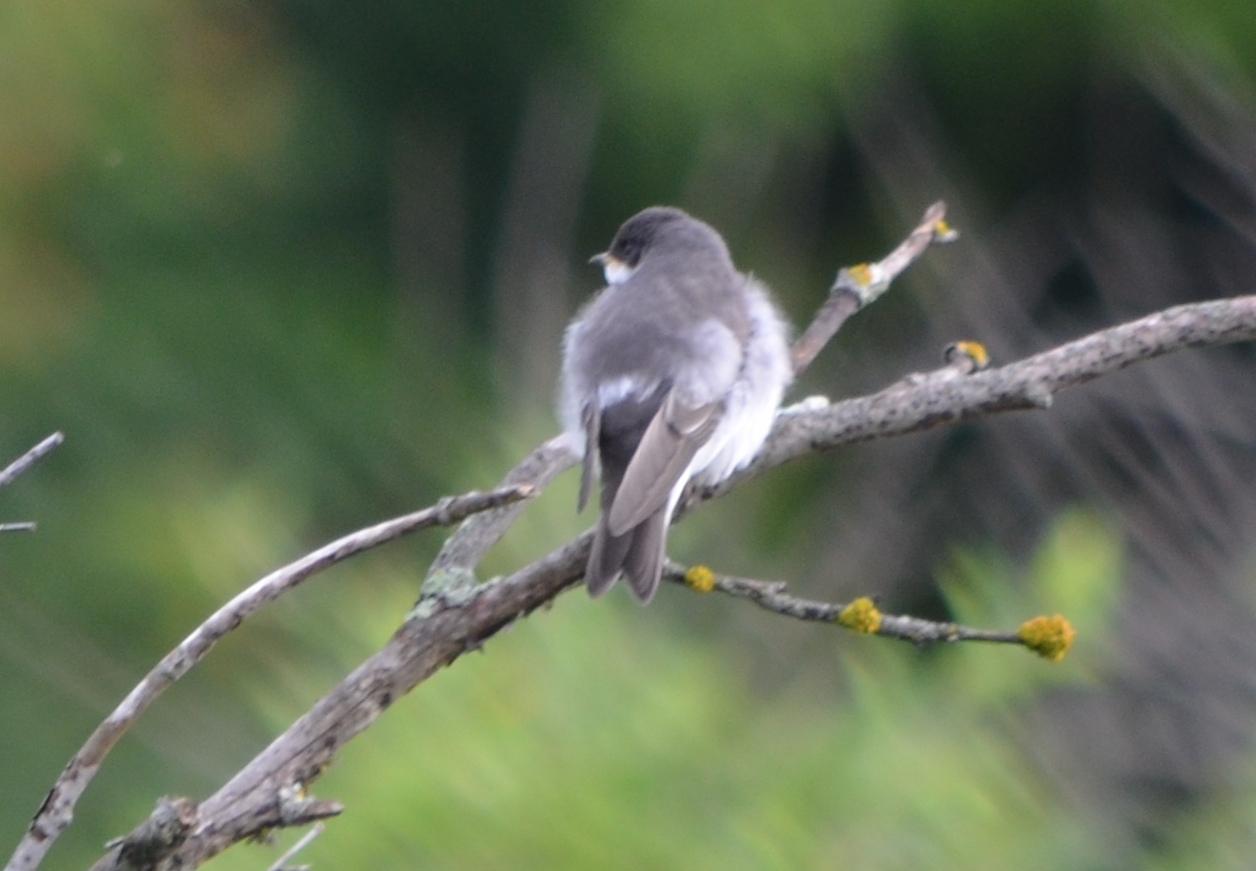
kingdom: Animalia
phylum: Chordata
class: Aves
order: Passeriformes
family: Hirundinidae
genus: Tachycineta
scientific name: Tachycineta bicolor
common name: Tree swallow
